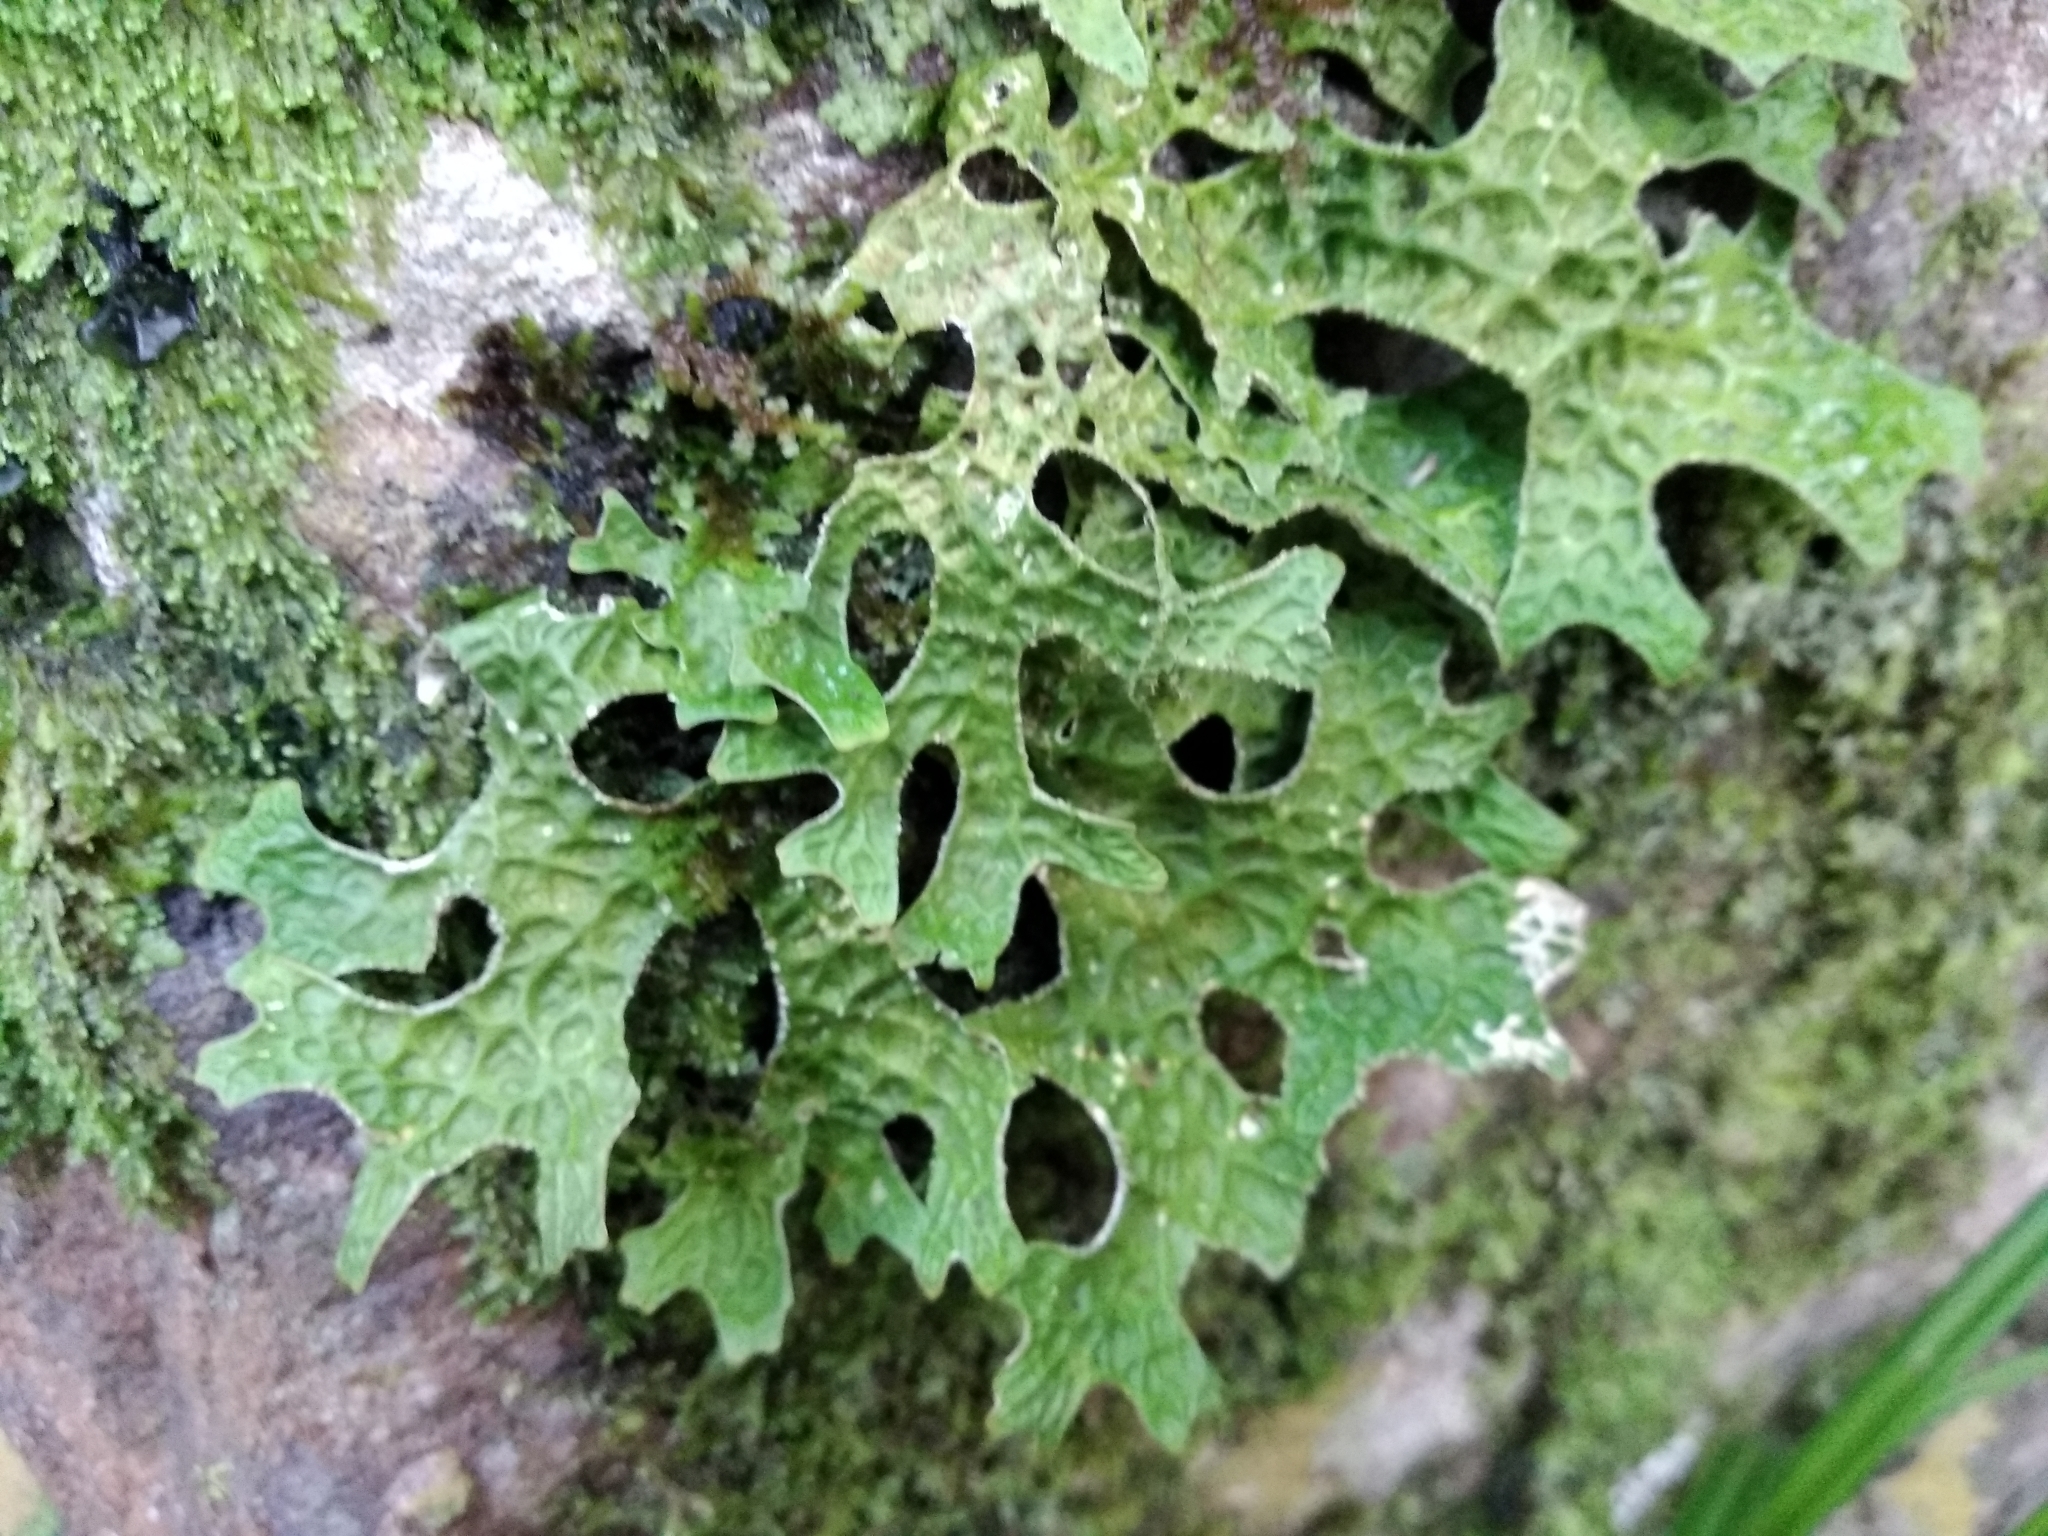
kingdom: Fungi
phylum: Ascomycota
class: Lecanoromycetes
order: Peltigerales
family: Lobariaceae
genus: Lobaria
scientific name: Lobaria pulmonaria
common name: Lungwort
